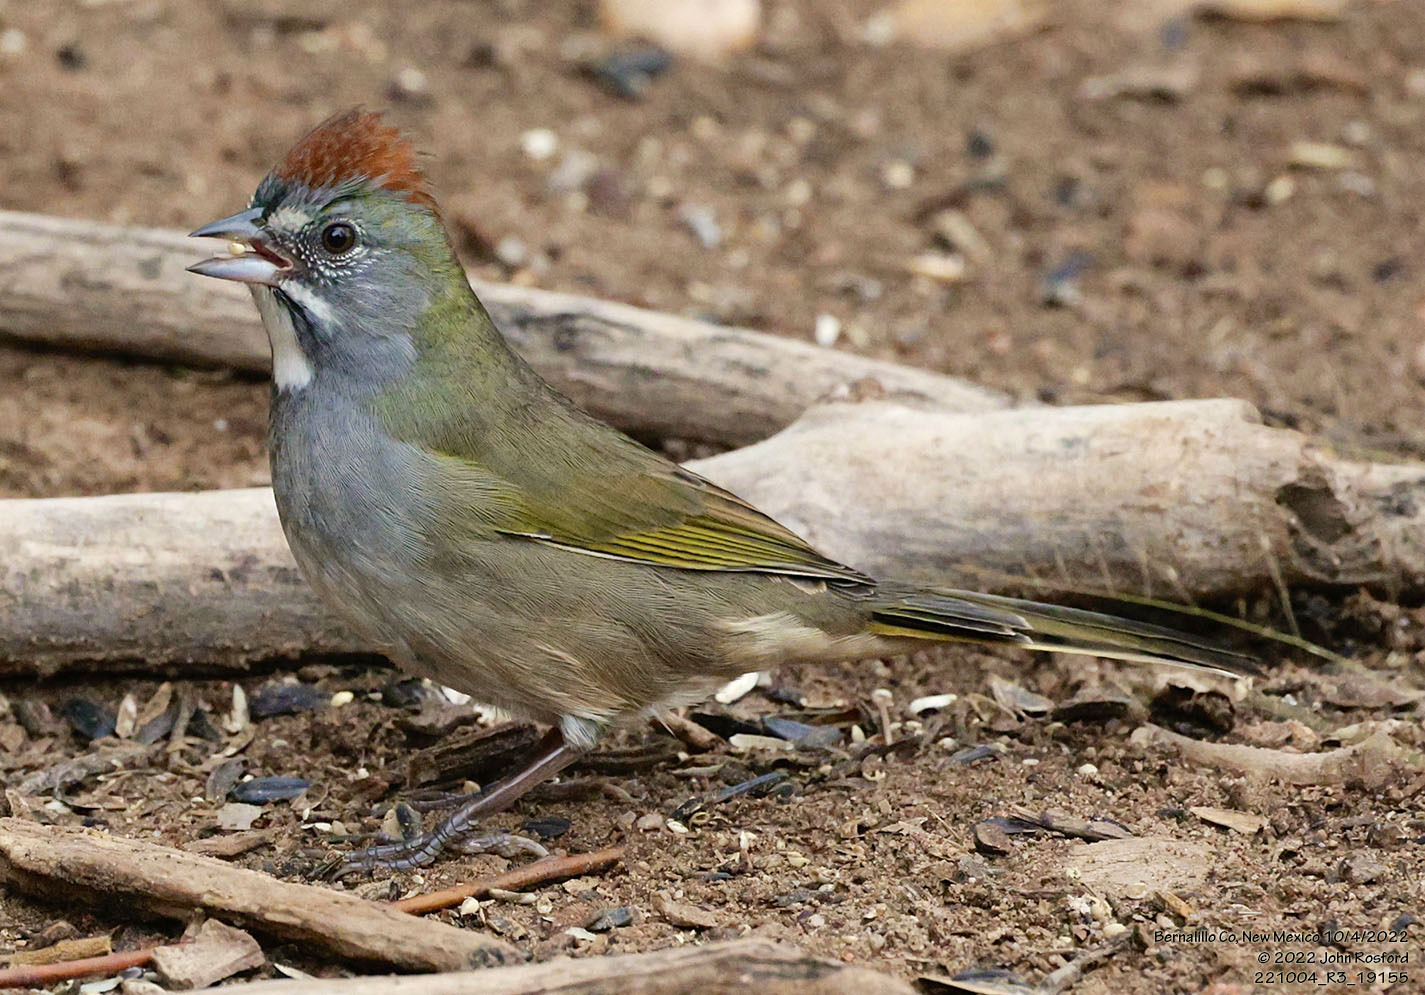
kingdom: Animalia
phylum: Chordata
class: Aves
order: Passeriformes
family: Passerellidae
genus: Pipilo
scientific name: Pipilo chlorurus
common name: Green-tailed towhee
